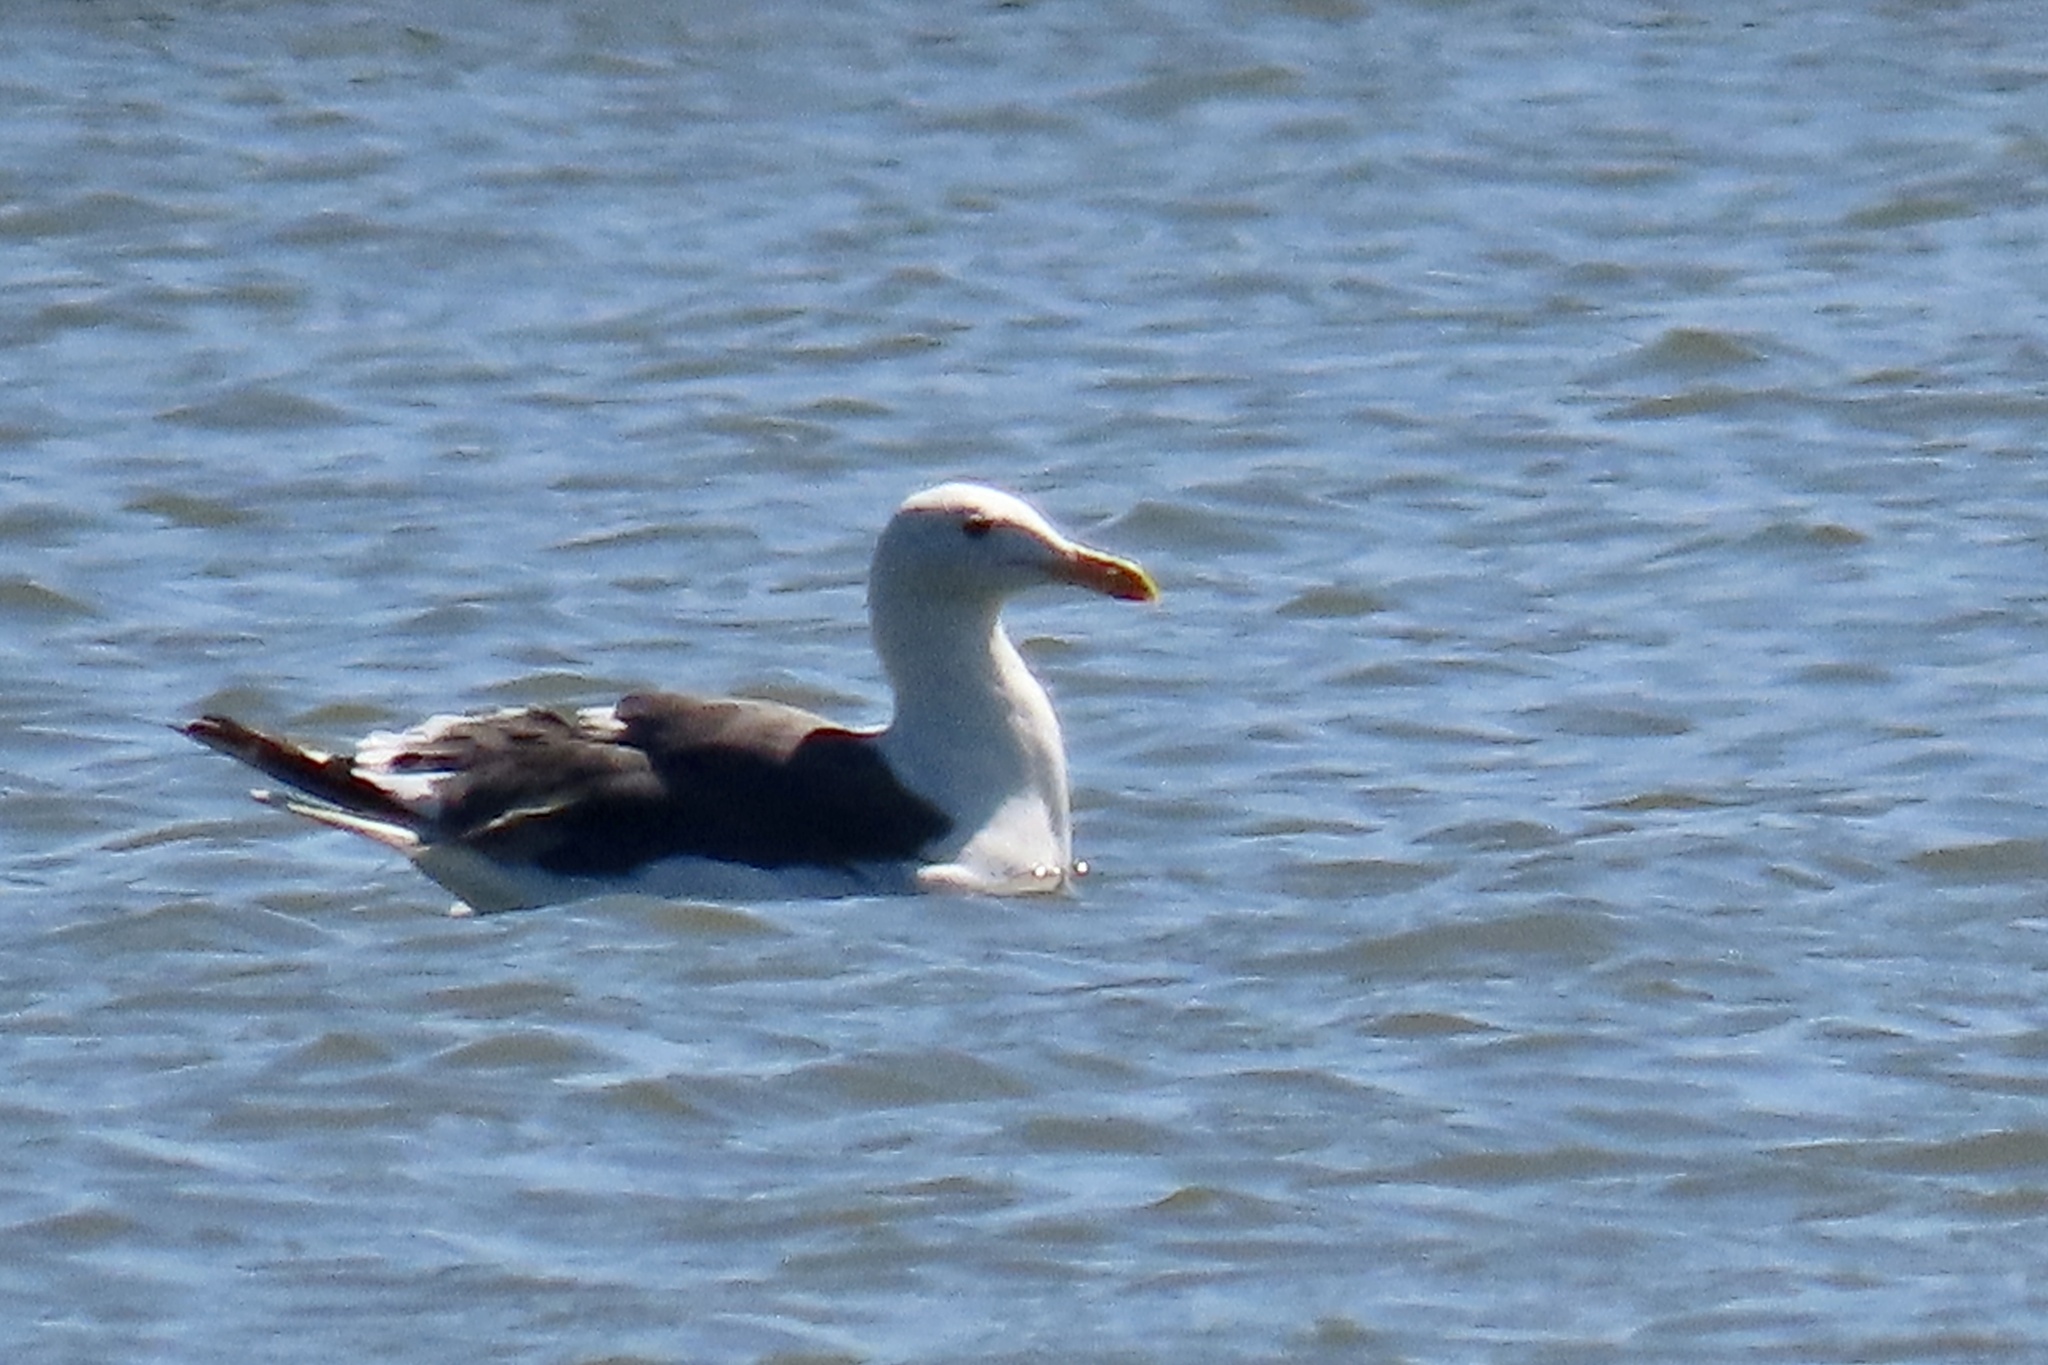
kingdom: Animalia
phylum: Chordata
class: Aves
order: Charadriiformes
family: Laridae
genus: Larus
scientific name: Larus occidentalis
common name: Western gull
